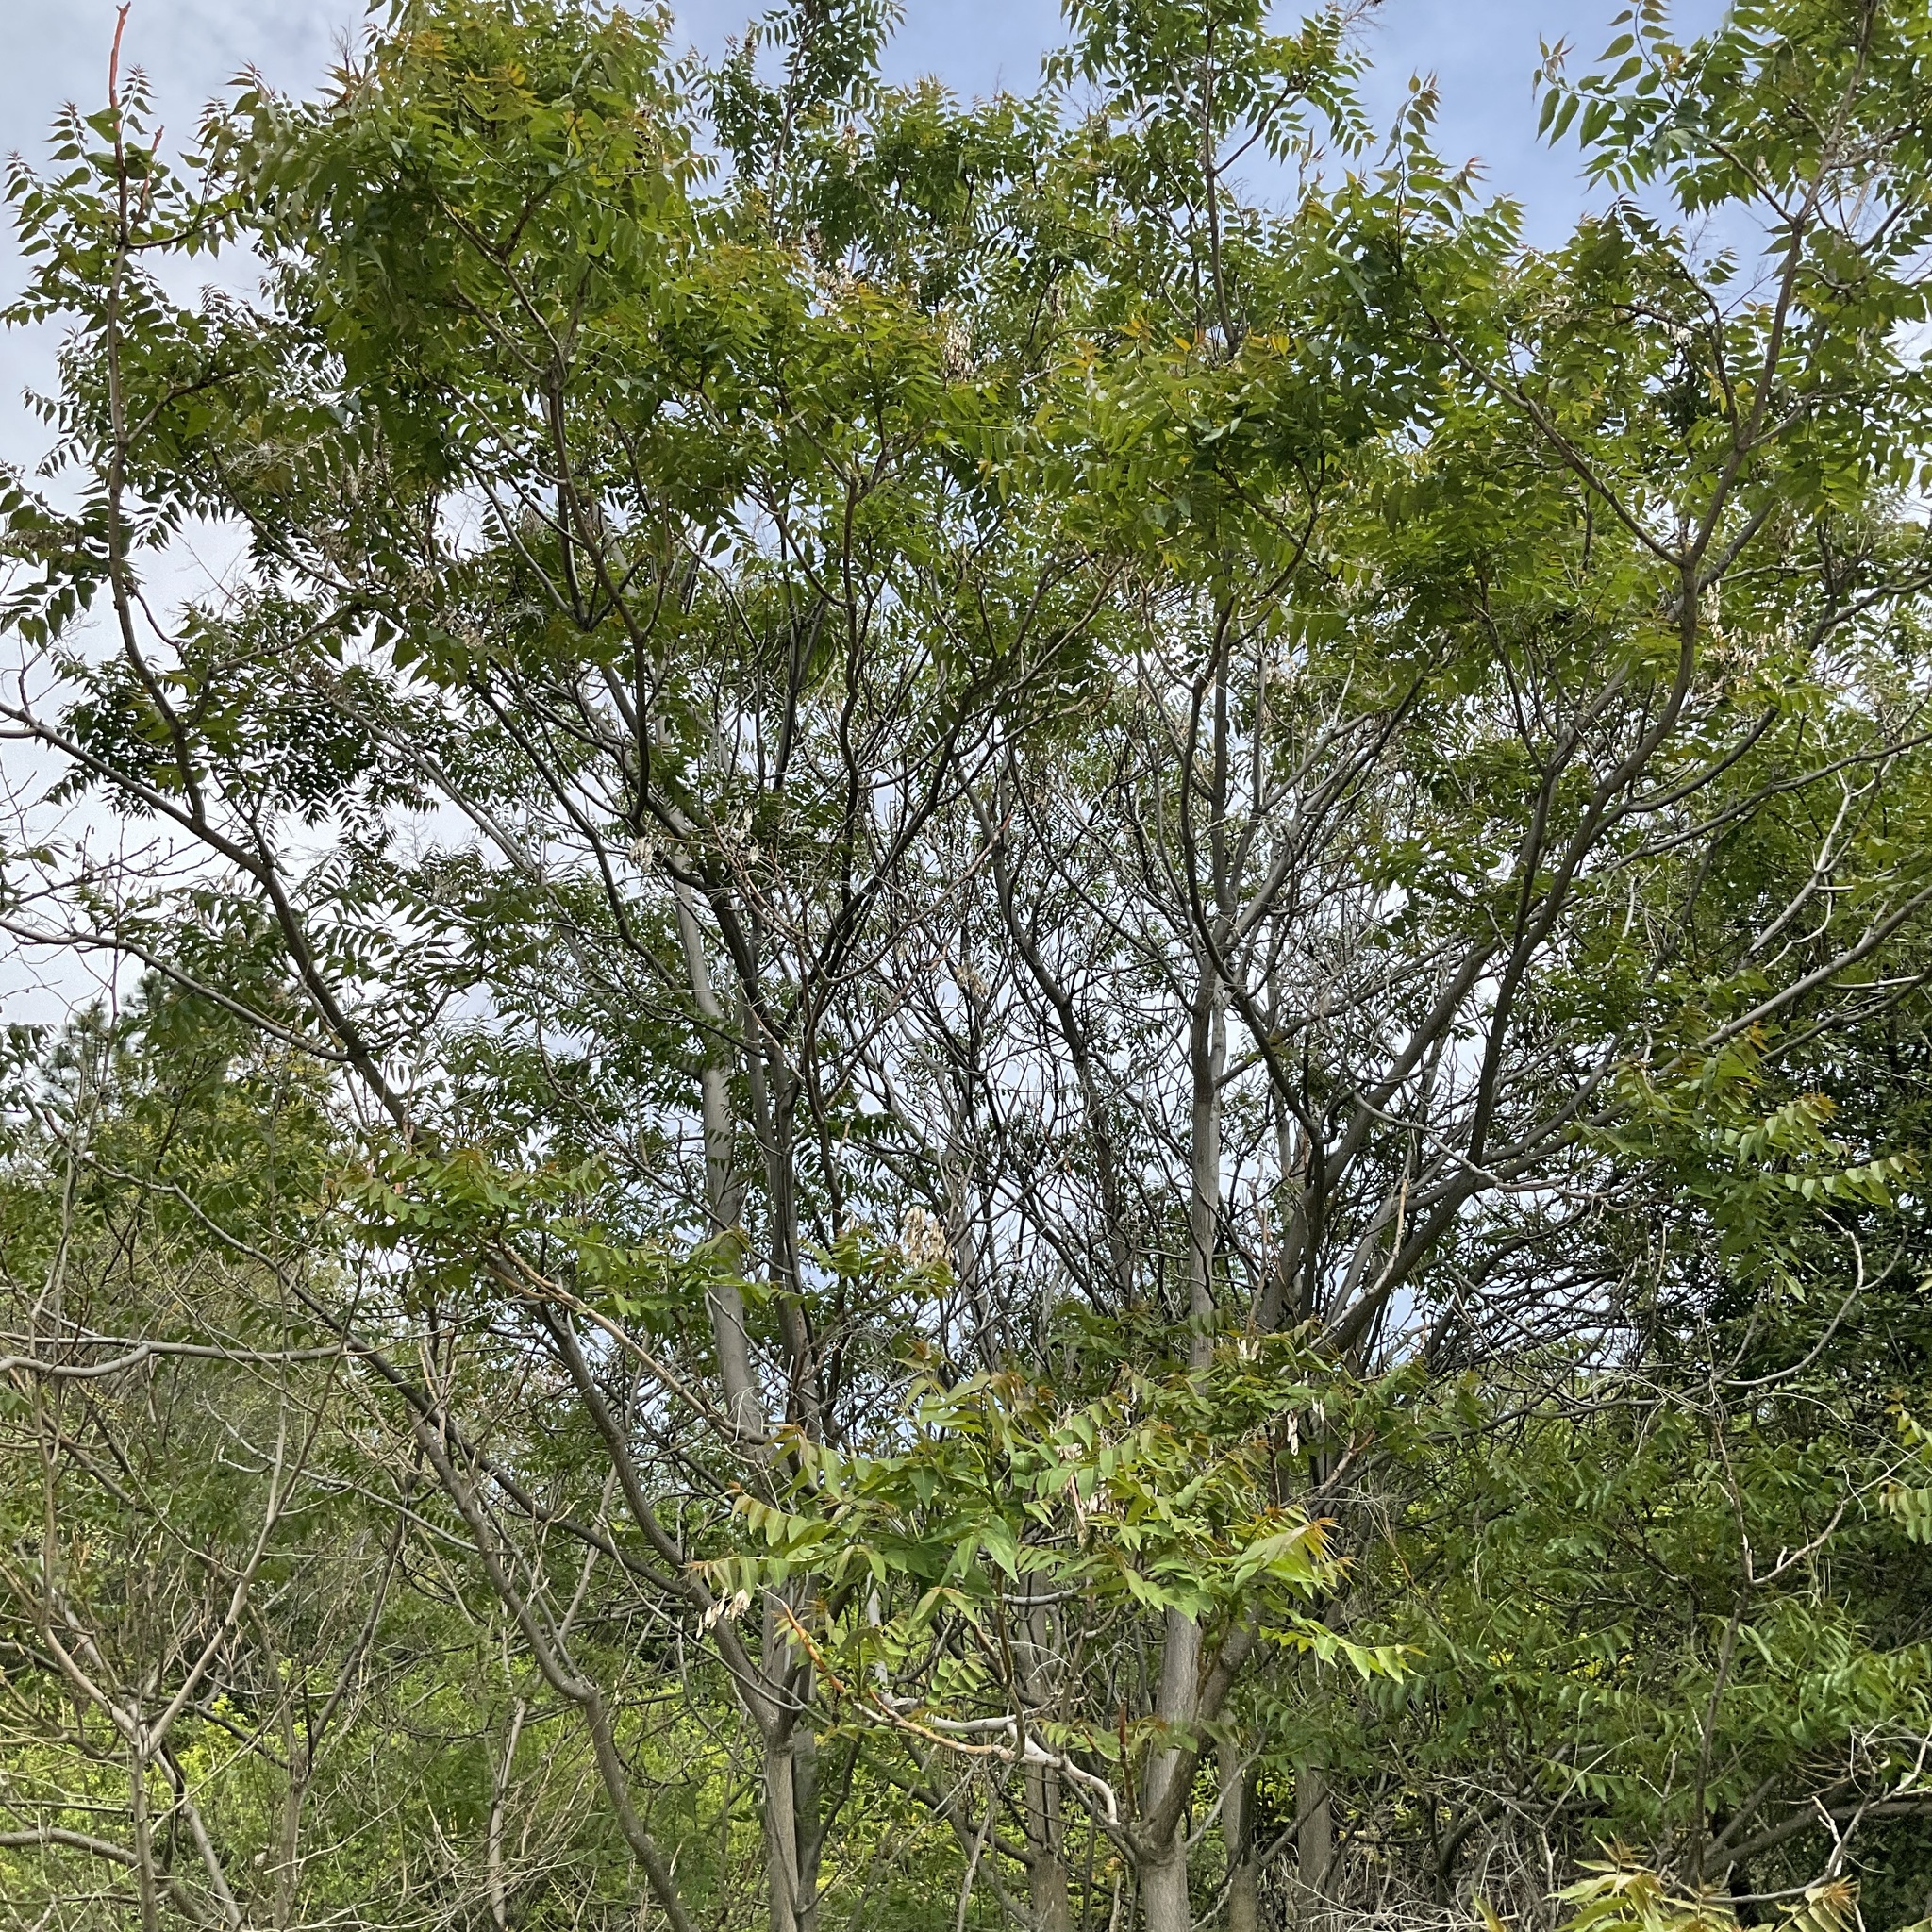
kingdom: Plantae
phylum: Tracheophyta
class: Magnoliopsida
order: Sapindales
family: Simaroubaceae
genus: Ailanthus
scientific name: Ailanthus altissima
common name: Tree-of-heaven
